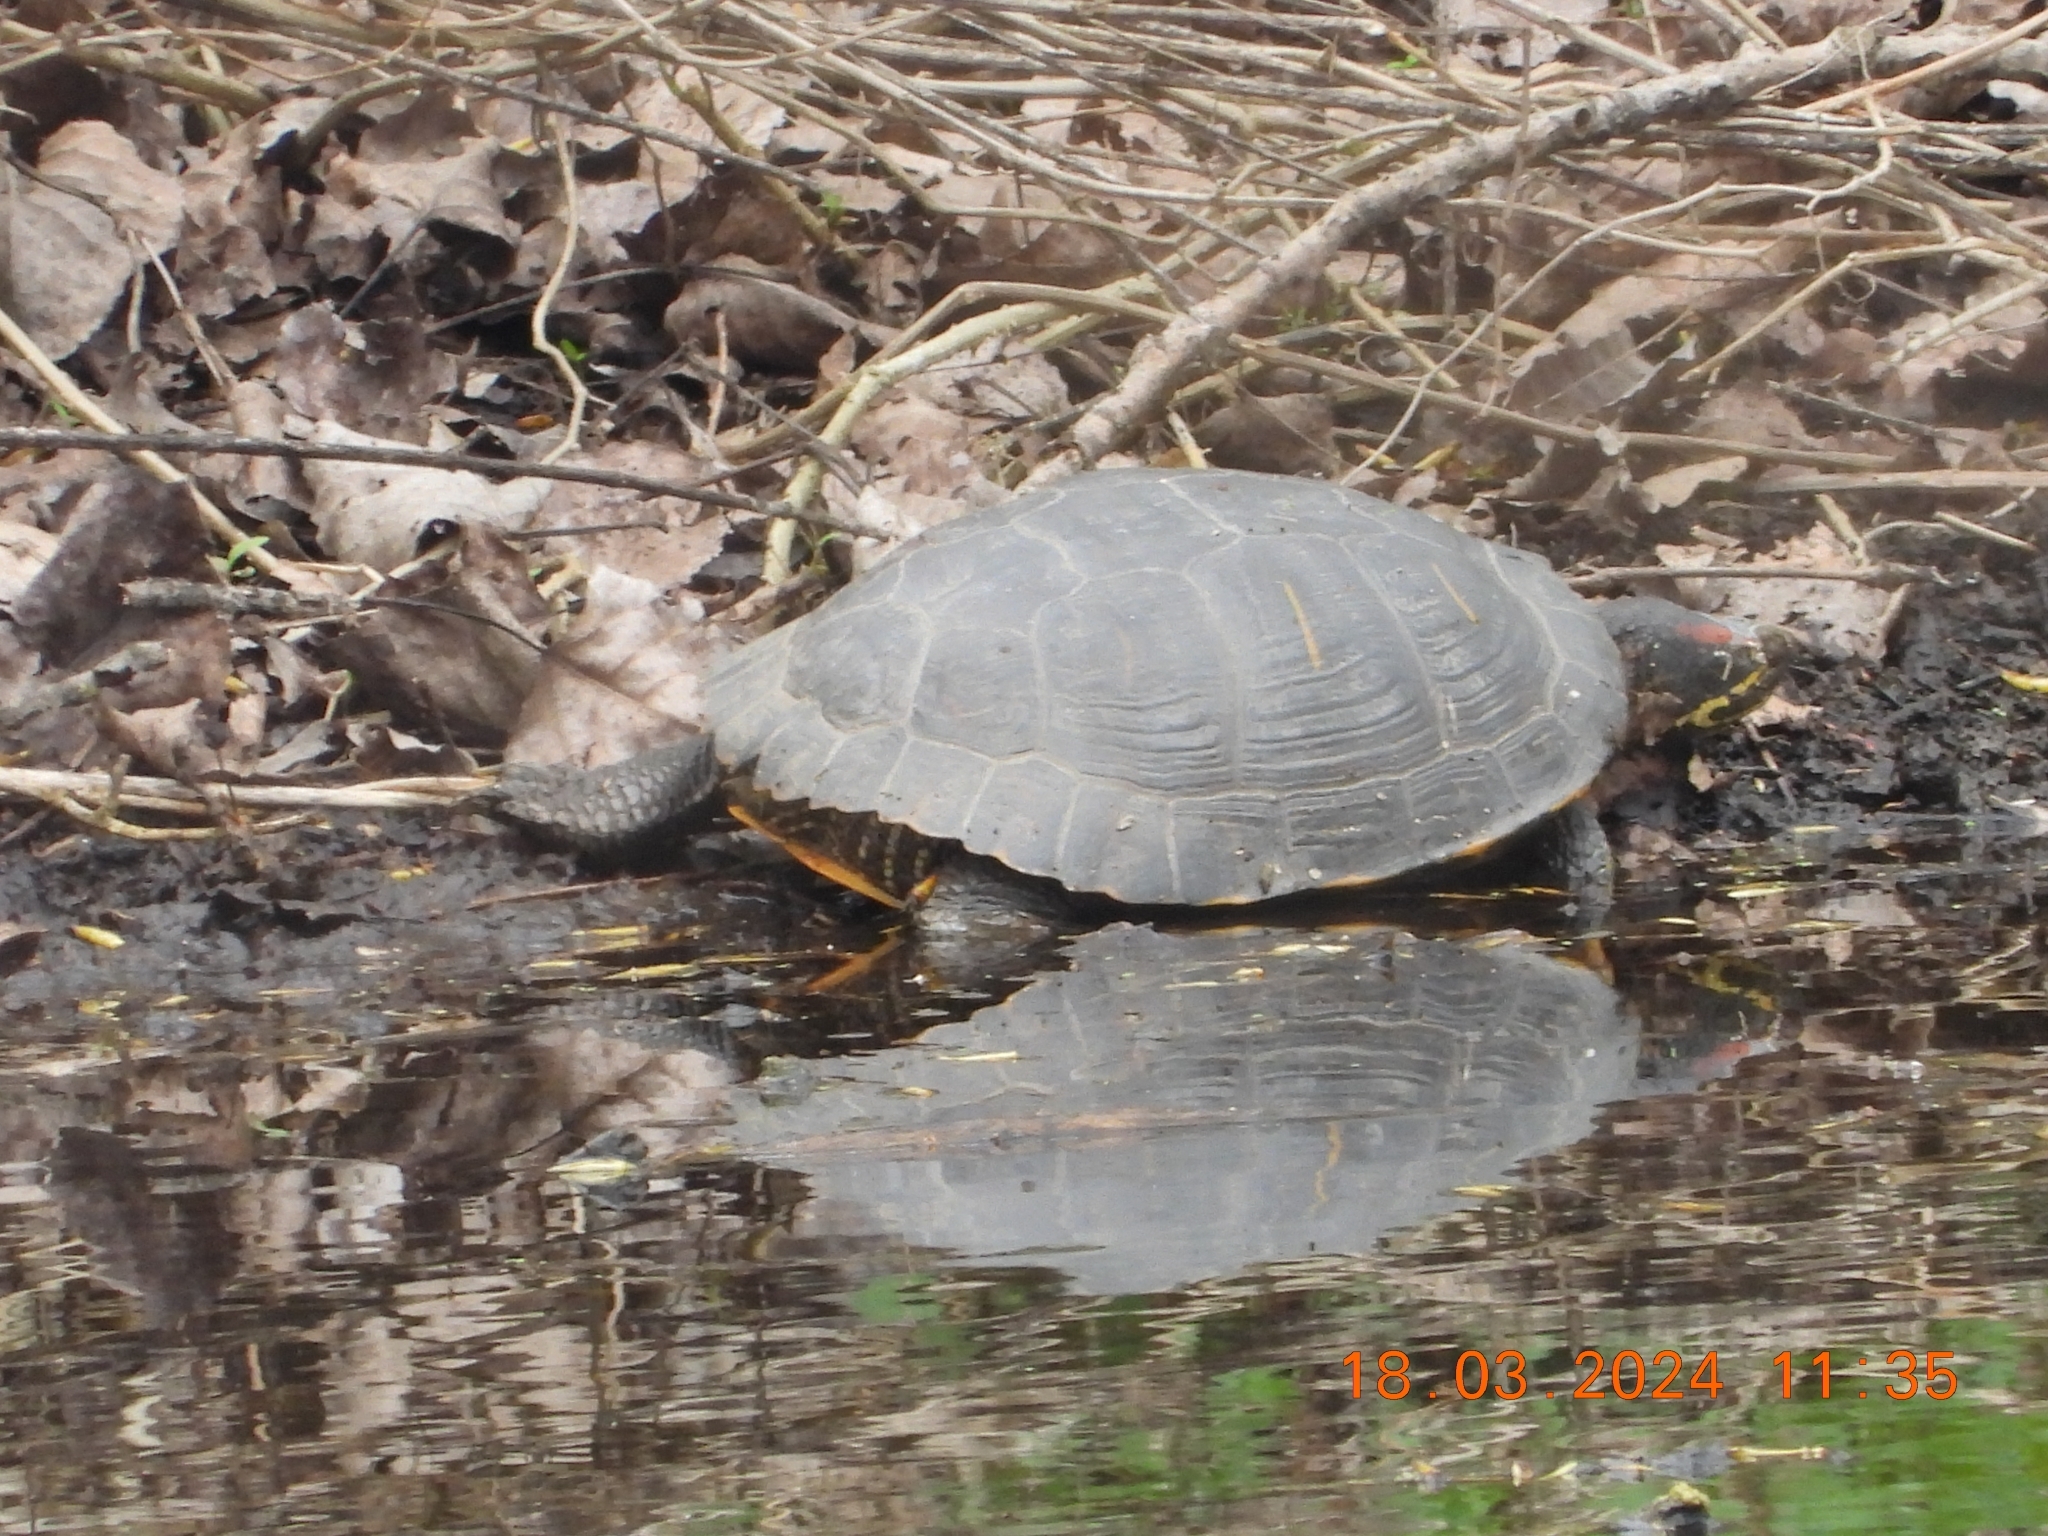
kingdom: Animalia
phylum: Chordata
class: Testudines
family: Emydidae
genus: Trachemys
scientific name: Trachemys scripta
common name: Slider
